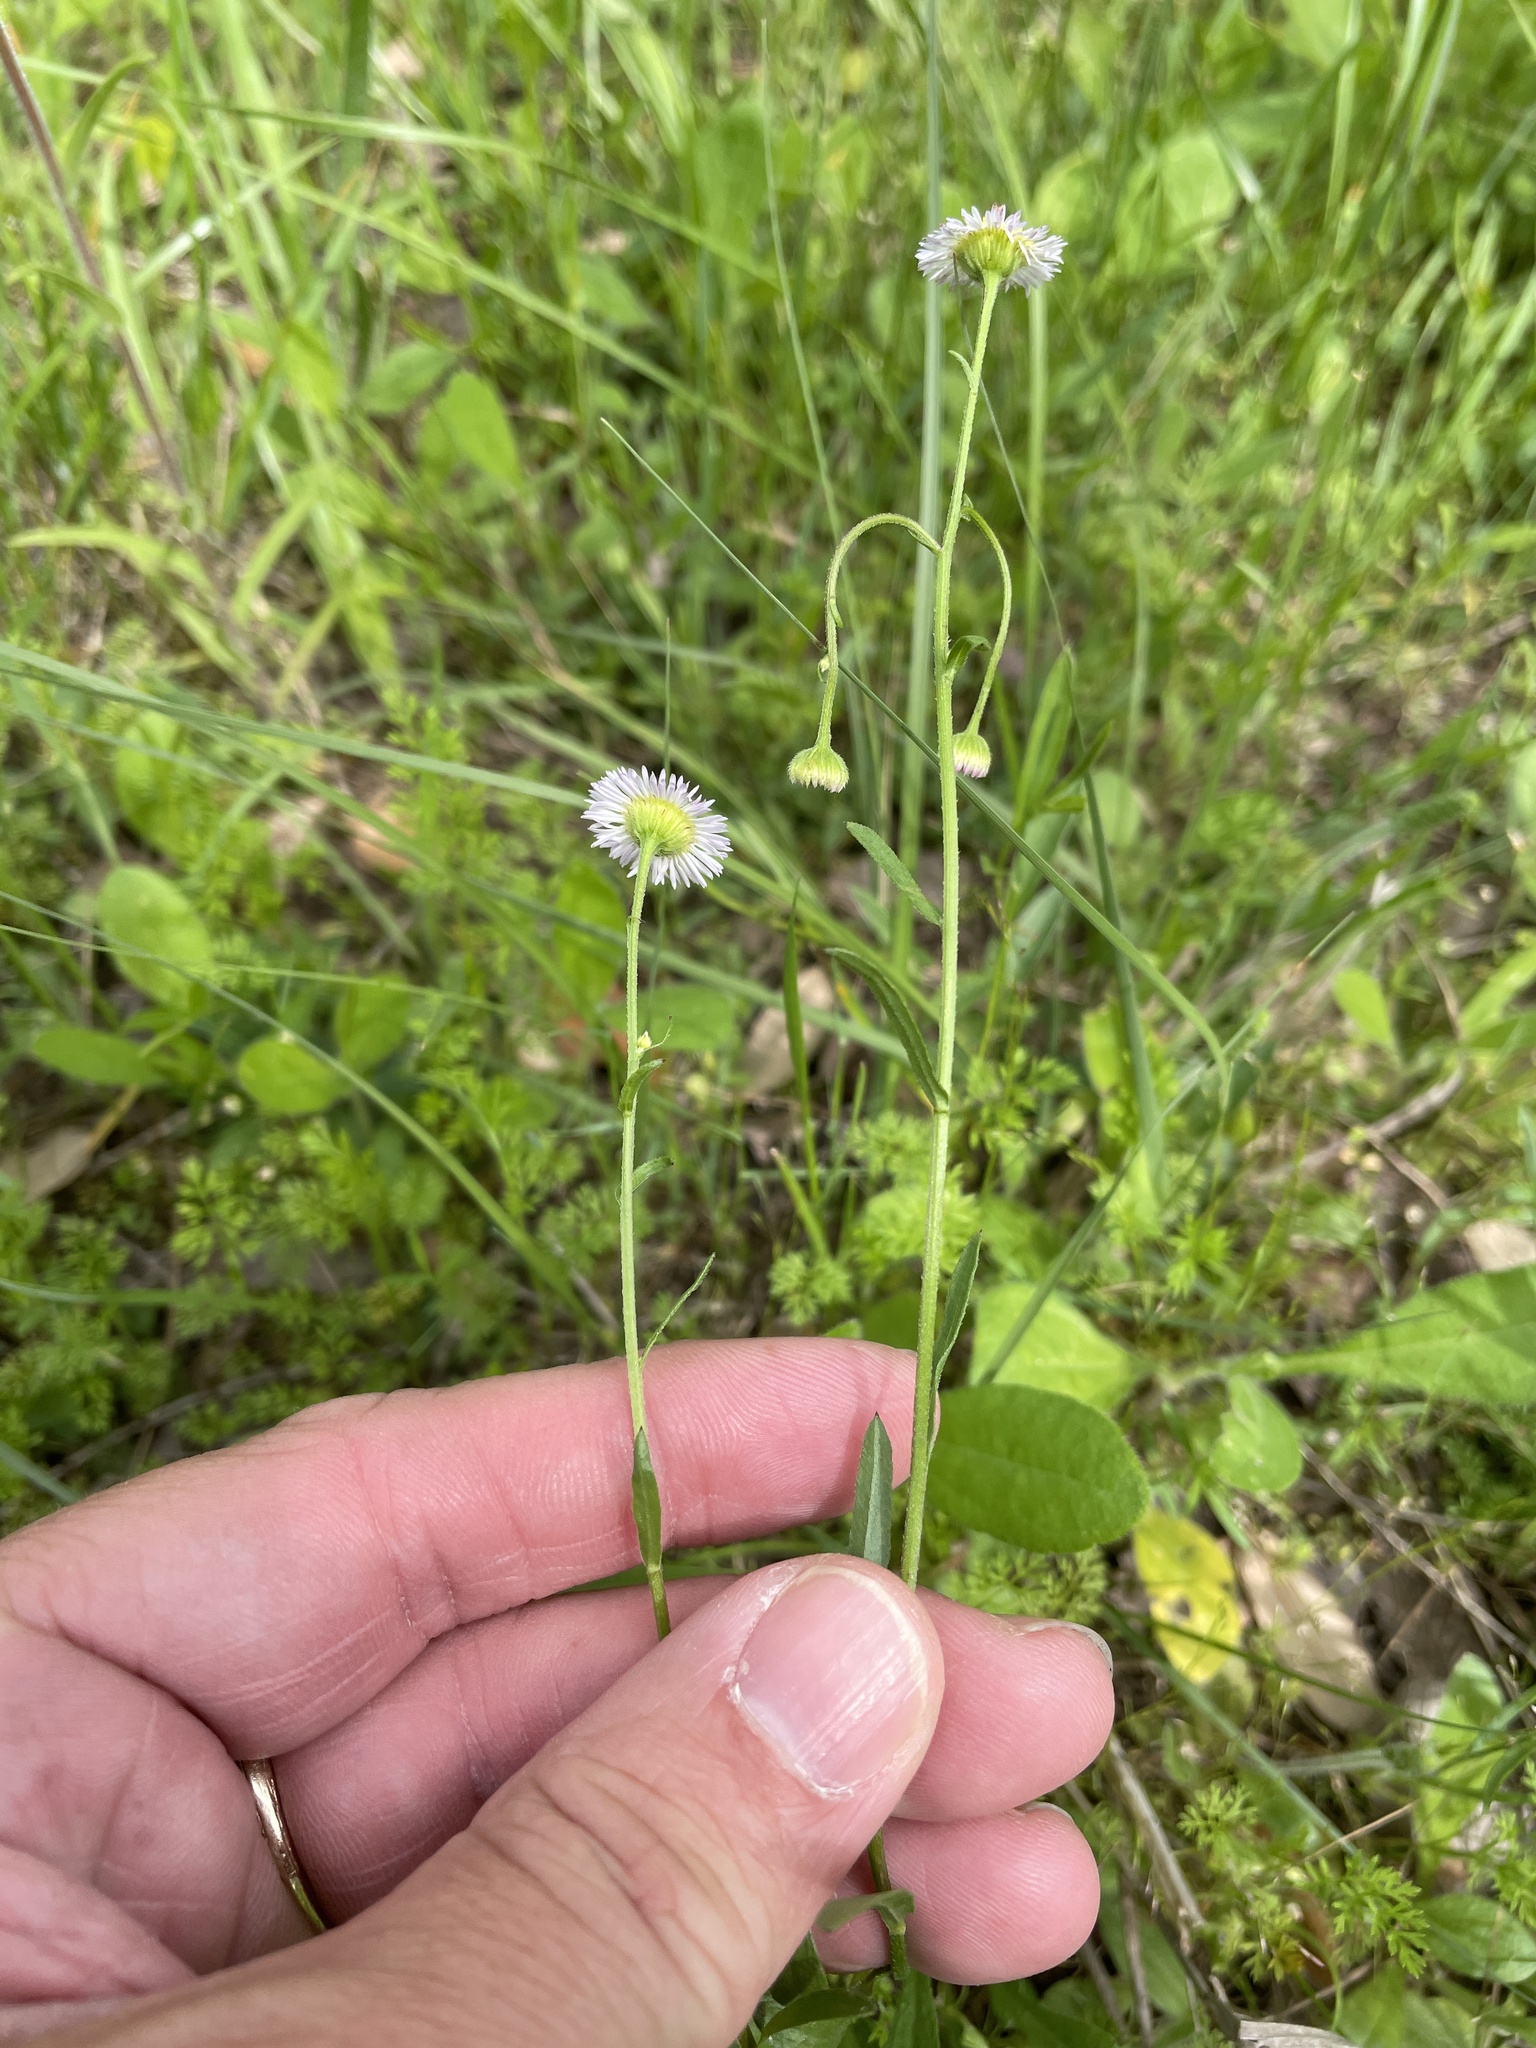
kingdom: Plantae
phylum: Tracheophyta
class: Magnoliopsida
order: Asterales
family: Asteraceae
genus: Erigeron
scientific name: Erigeron strigosus
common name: Common eastern fleabane
